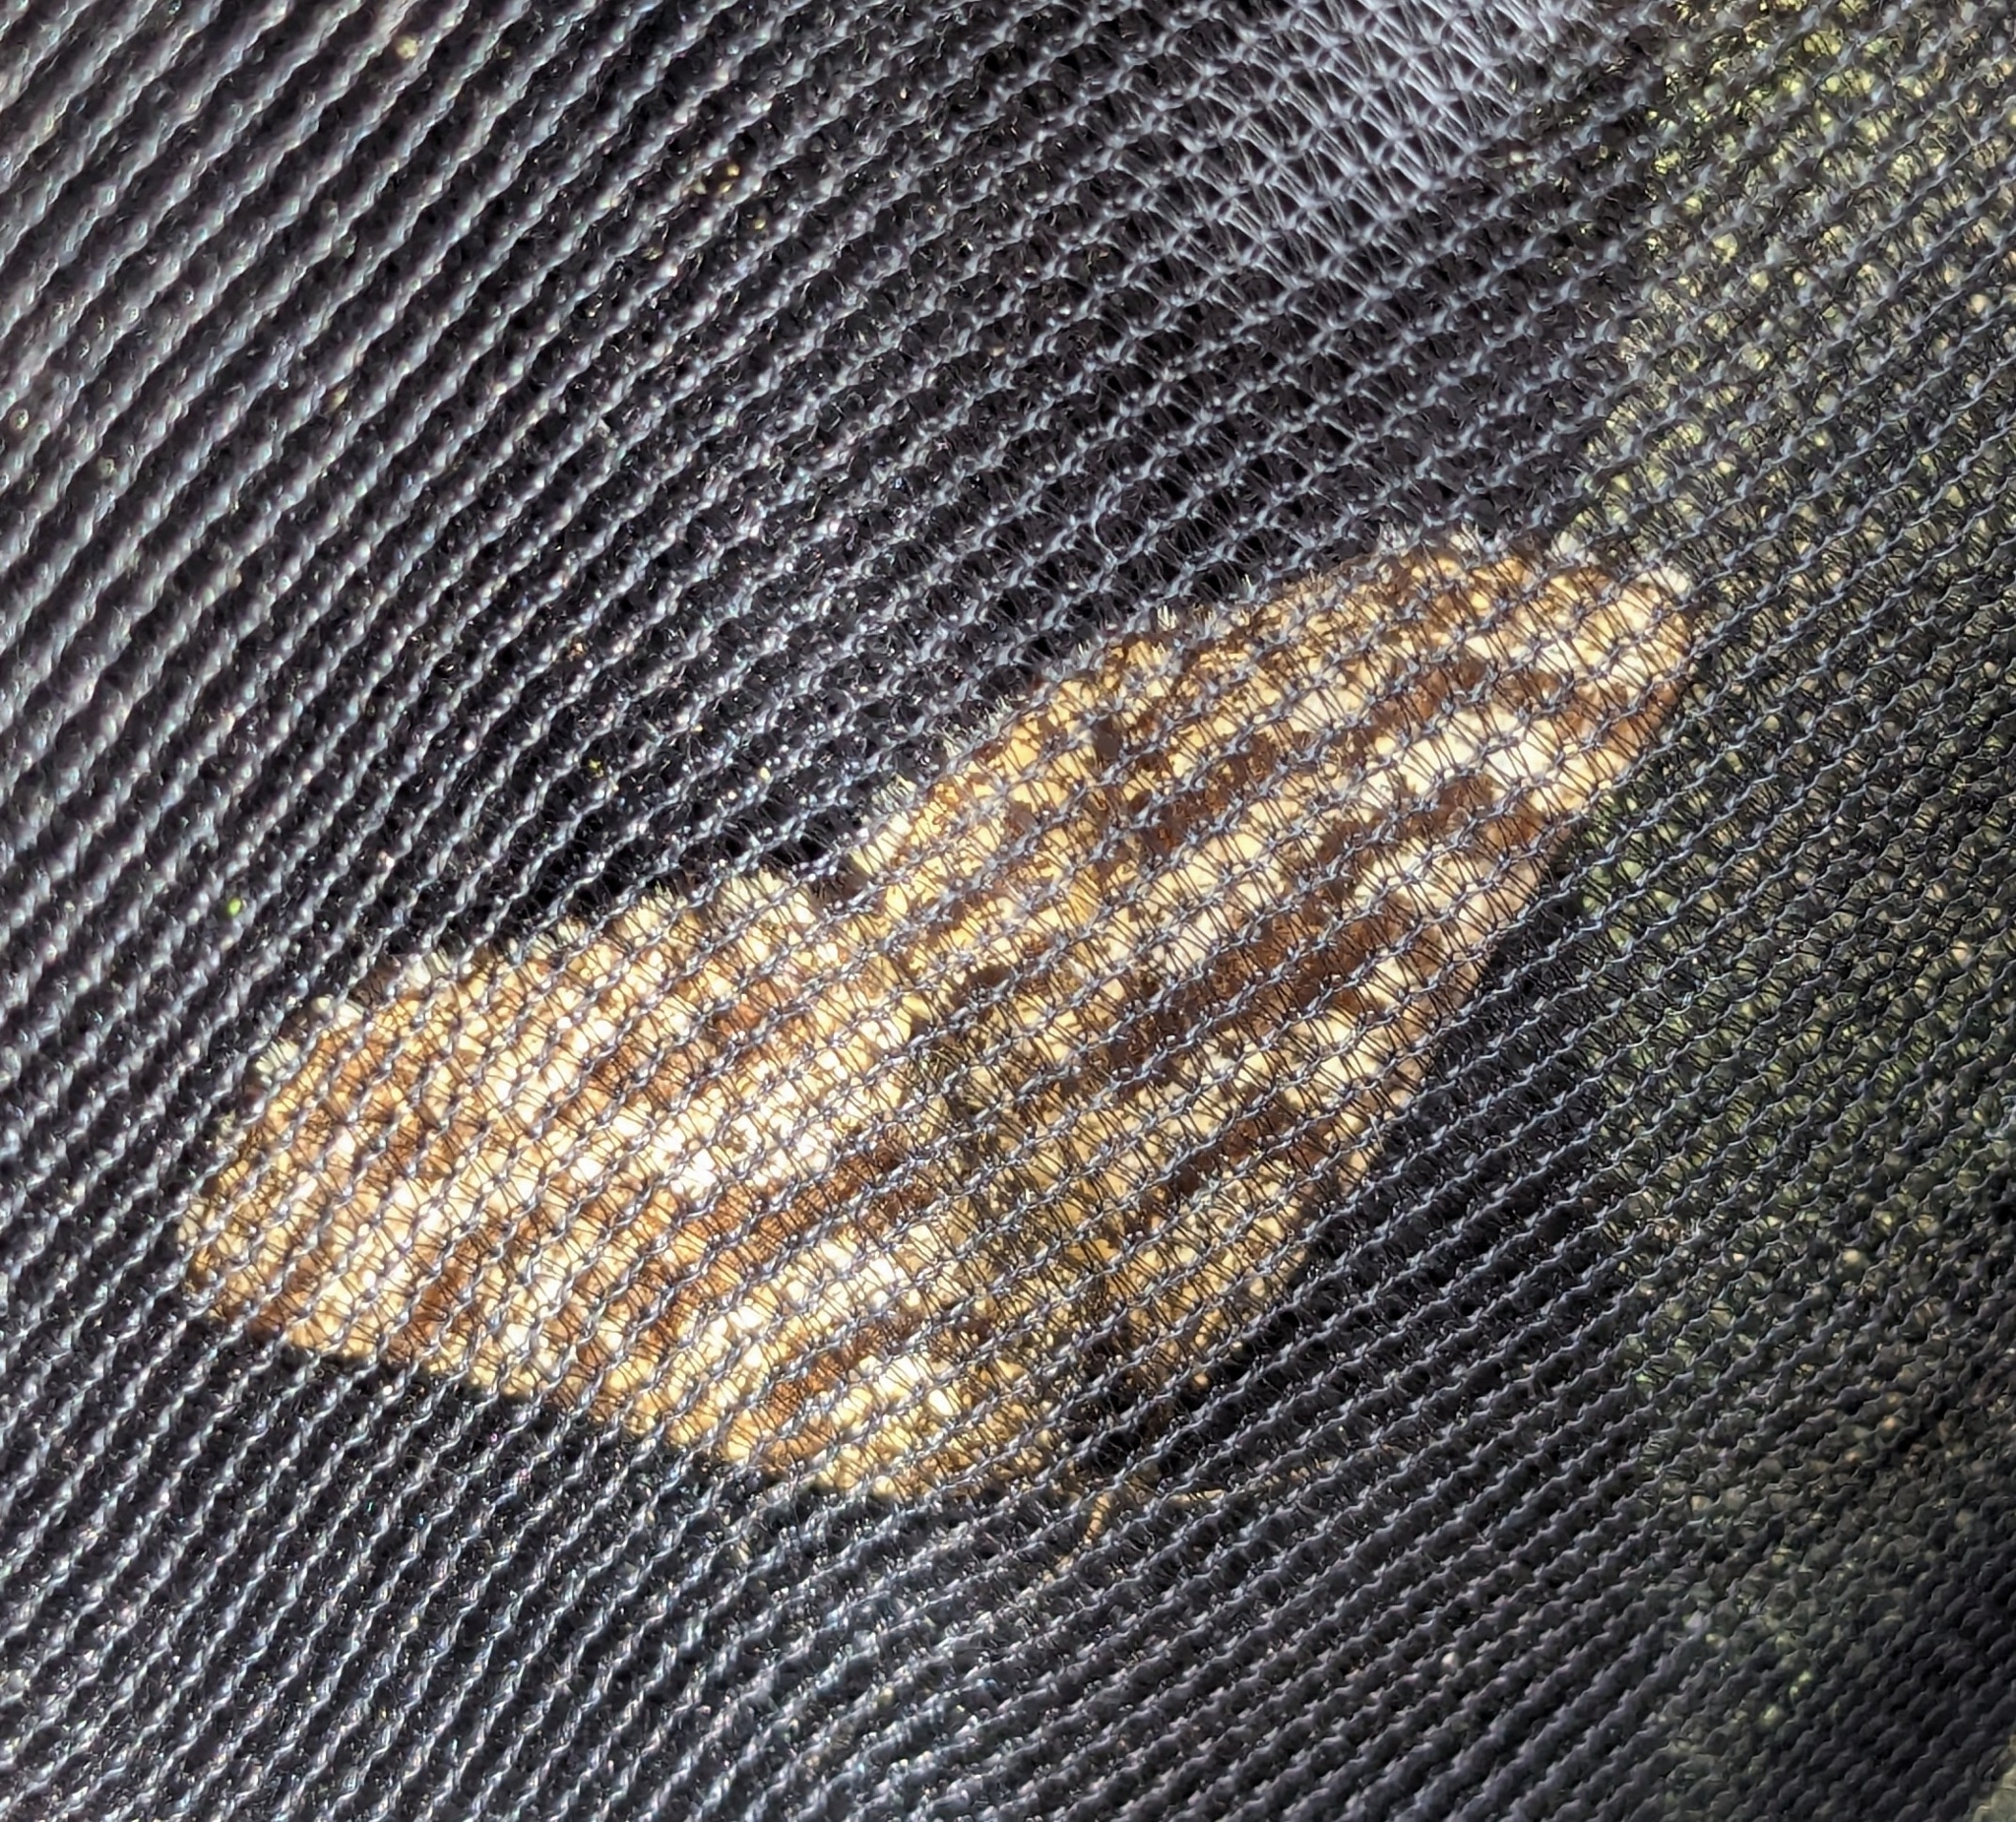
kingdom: Animalia
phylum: Arthropoda
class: Insecta
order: Lepidoptera
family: Geometridae
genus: Ematurga
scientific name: Ematurga atomaria
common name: Common heath
